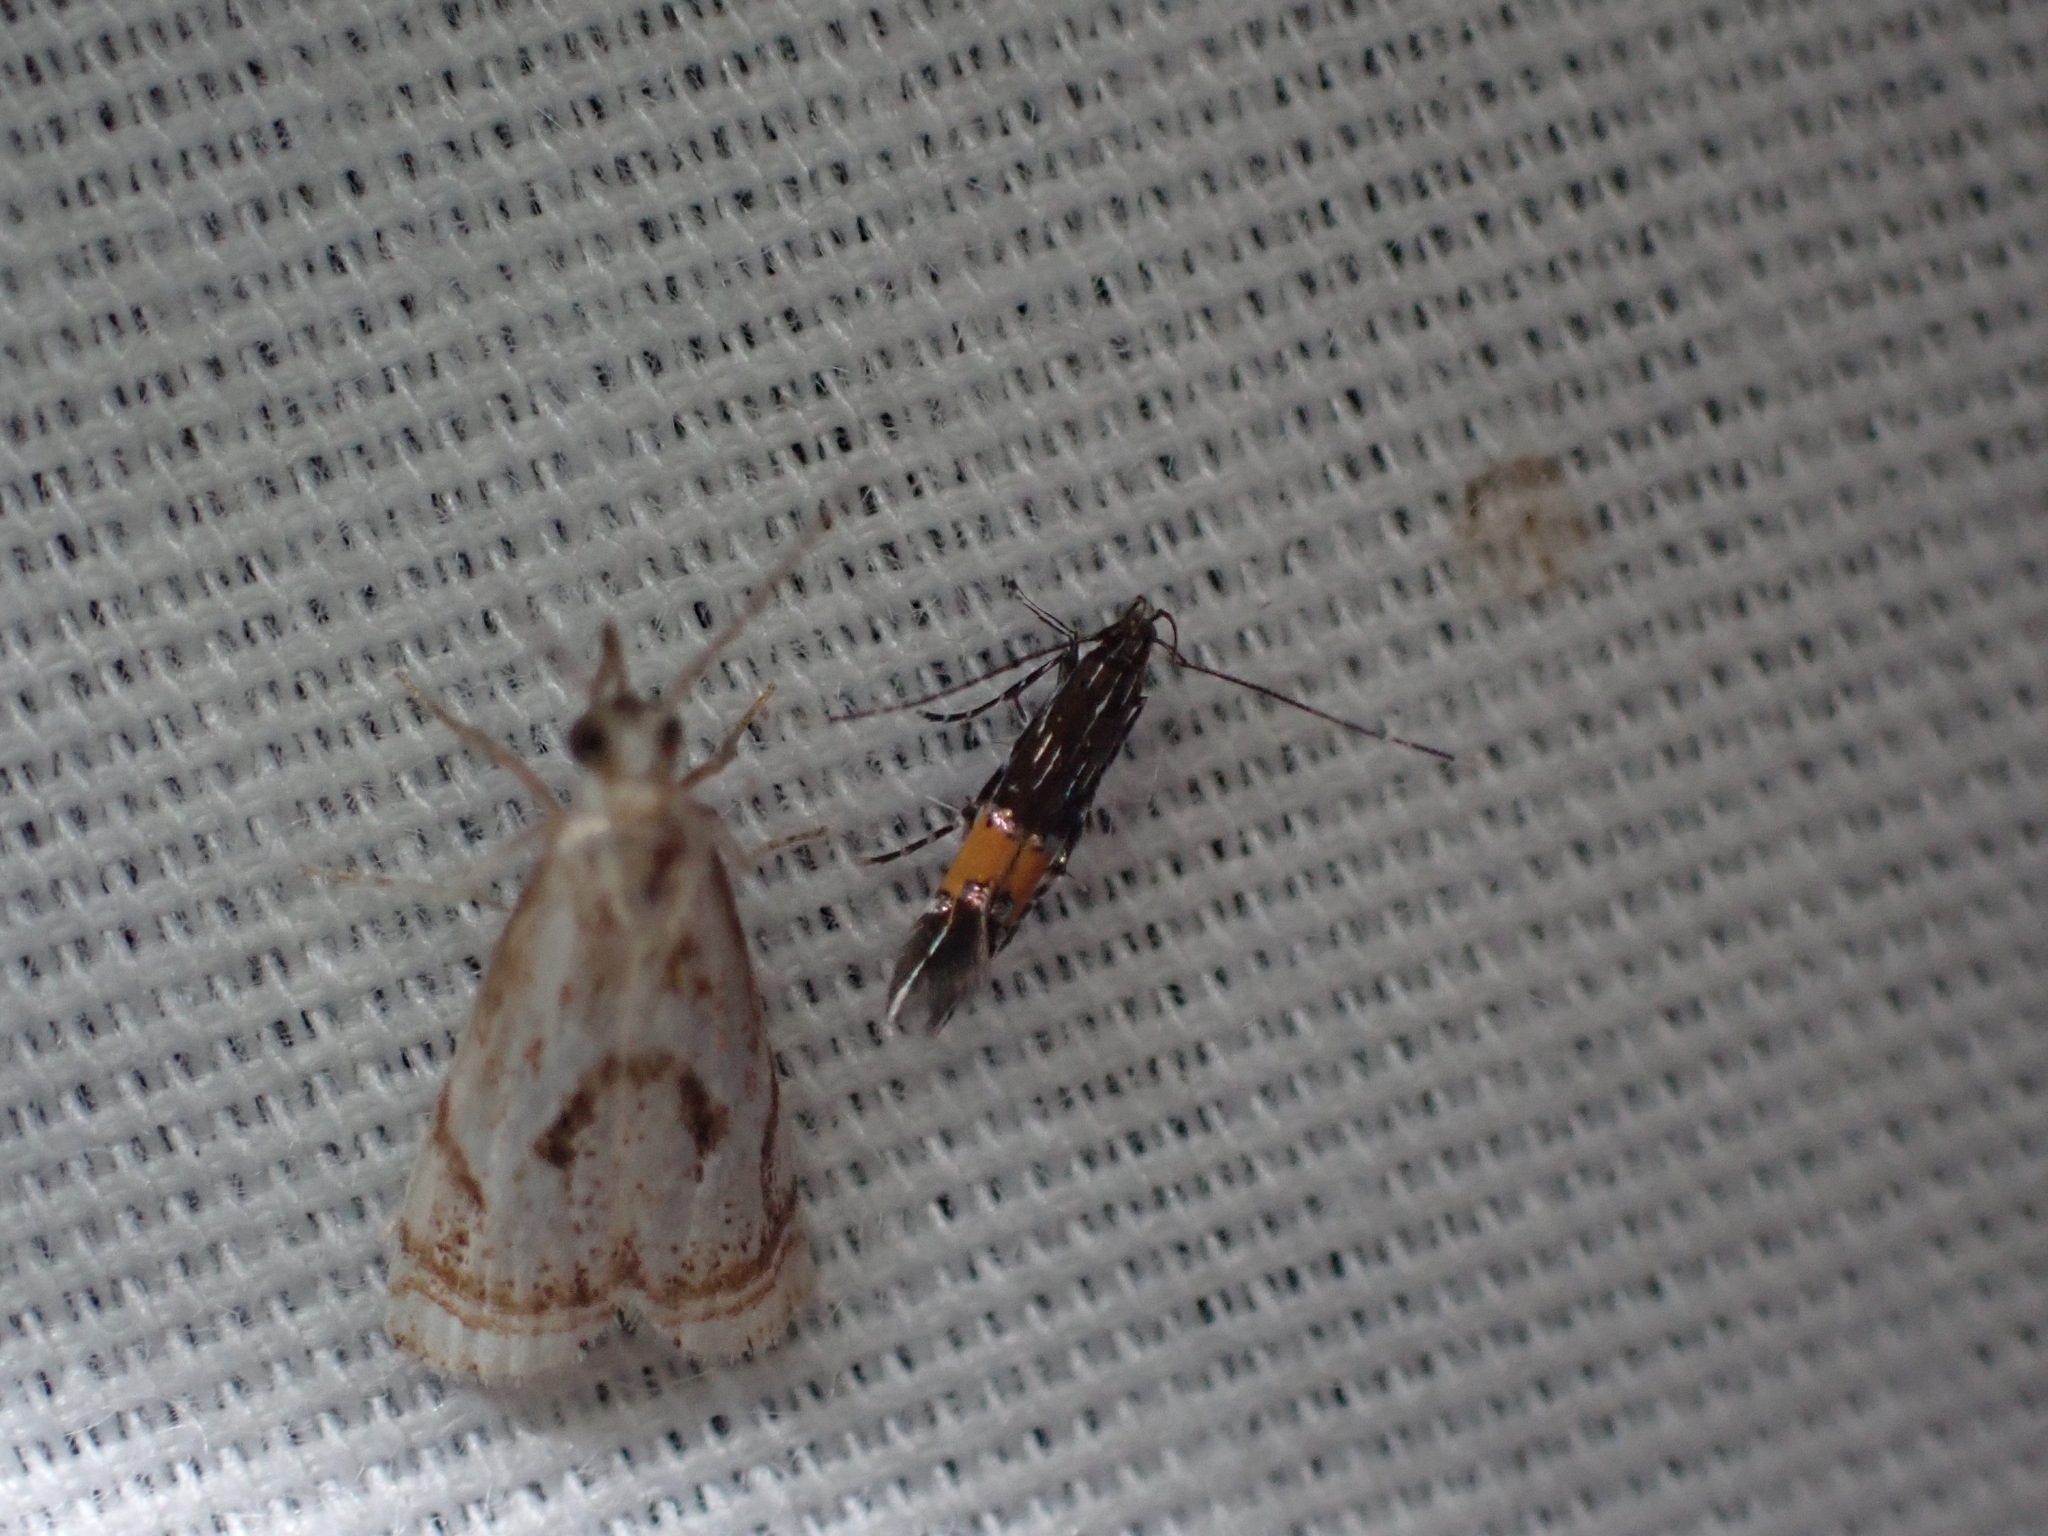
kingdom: Animalia
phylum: Arthropoda
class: Insecta
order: Lepidoptera
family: Crambidae
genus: Microcrambus
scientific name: Microcrambus elegans
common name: Elegant grass-veneer
